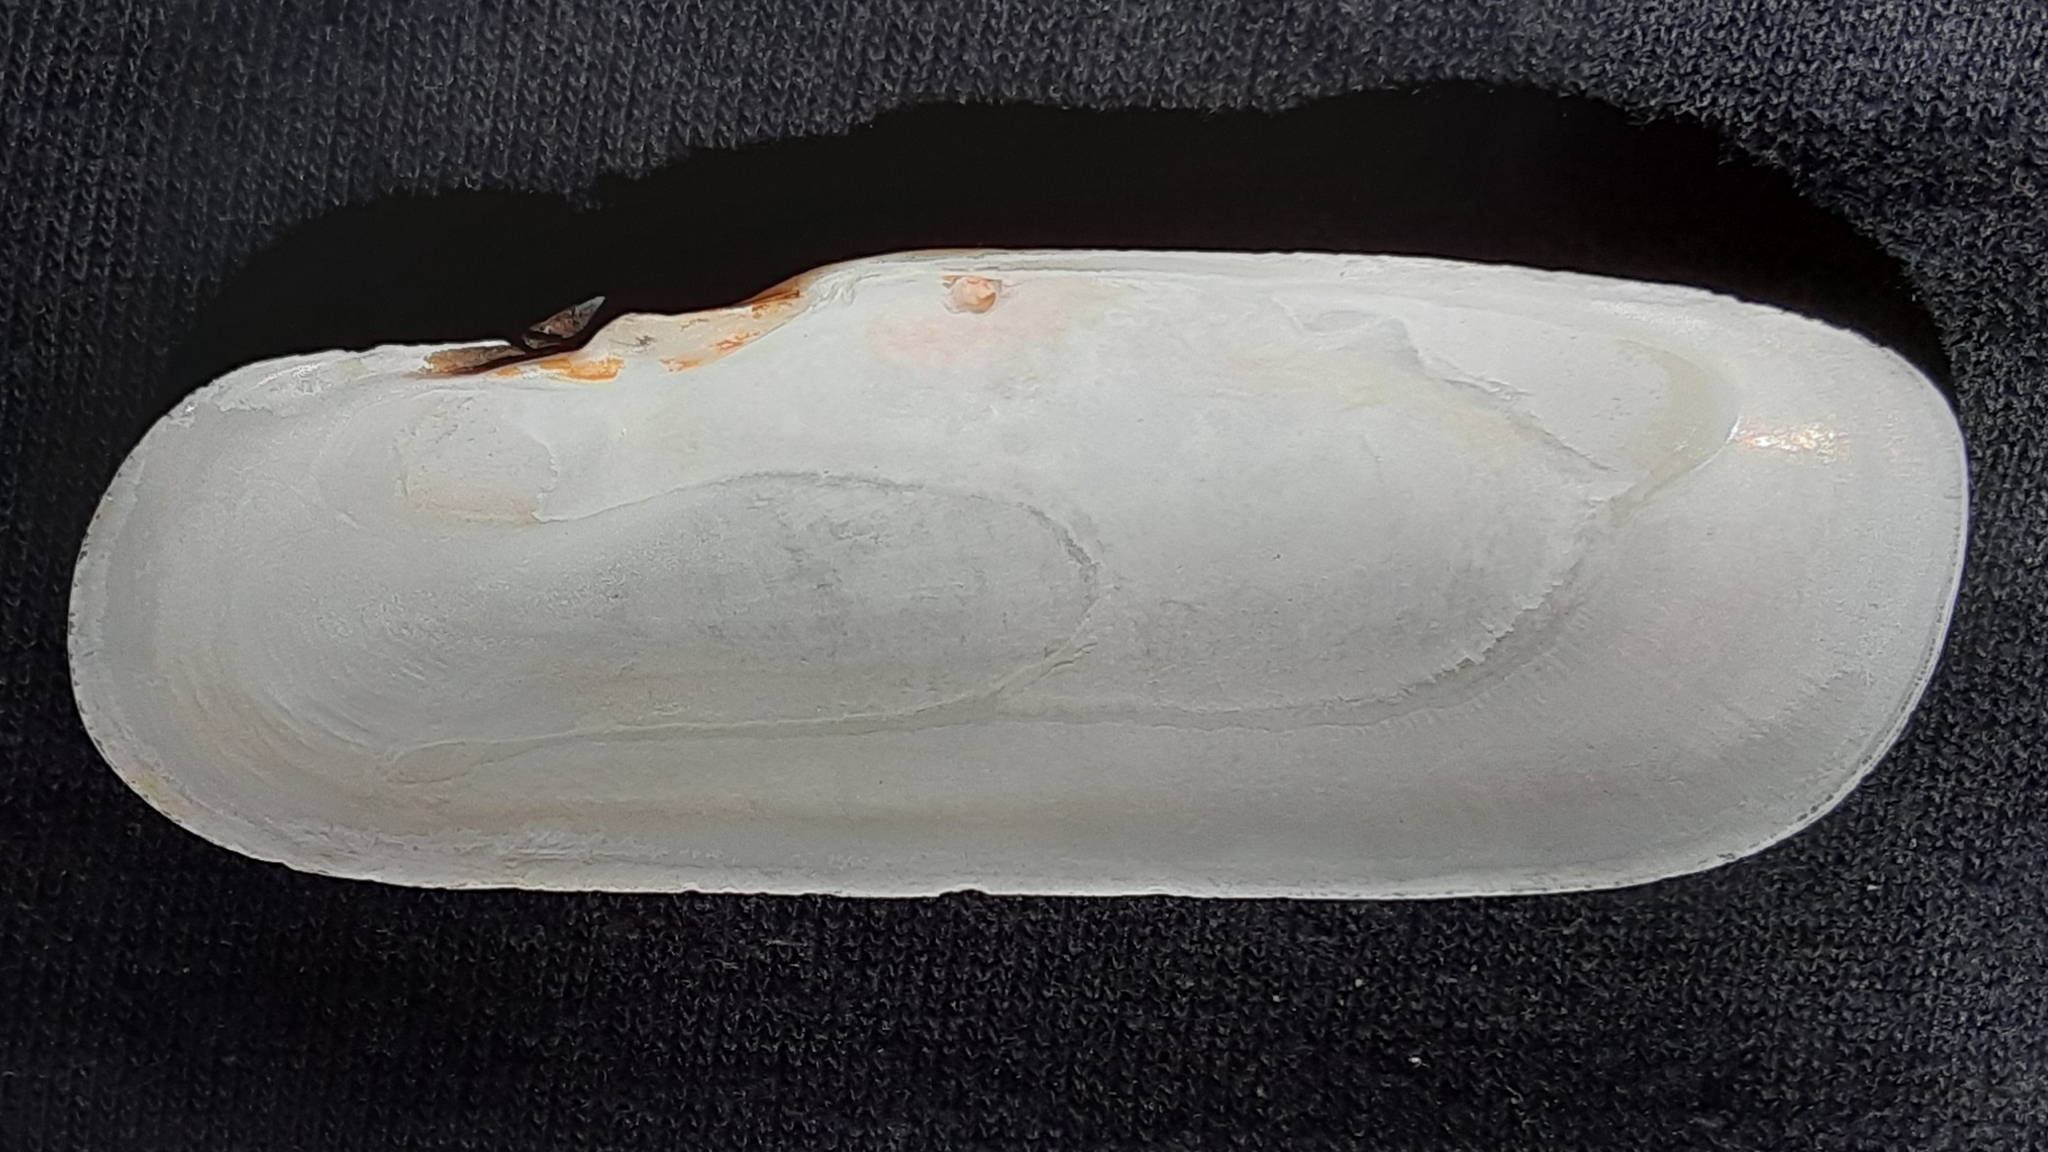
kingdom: Animalia
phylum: Mollusca
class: Bivalvia
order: Cardiida
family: Solecurtidae
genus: Tagelus
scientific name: Tagelus plebeius
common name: Stout tagelus
